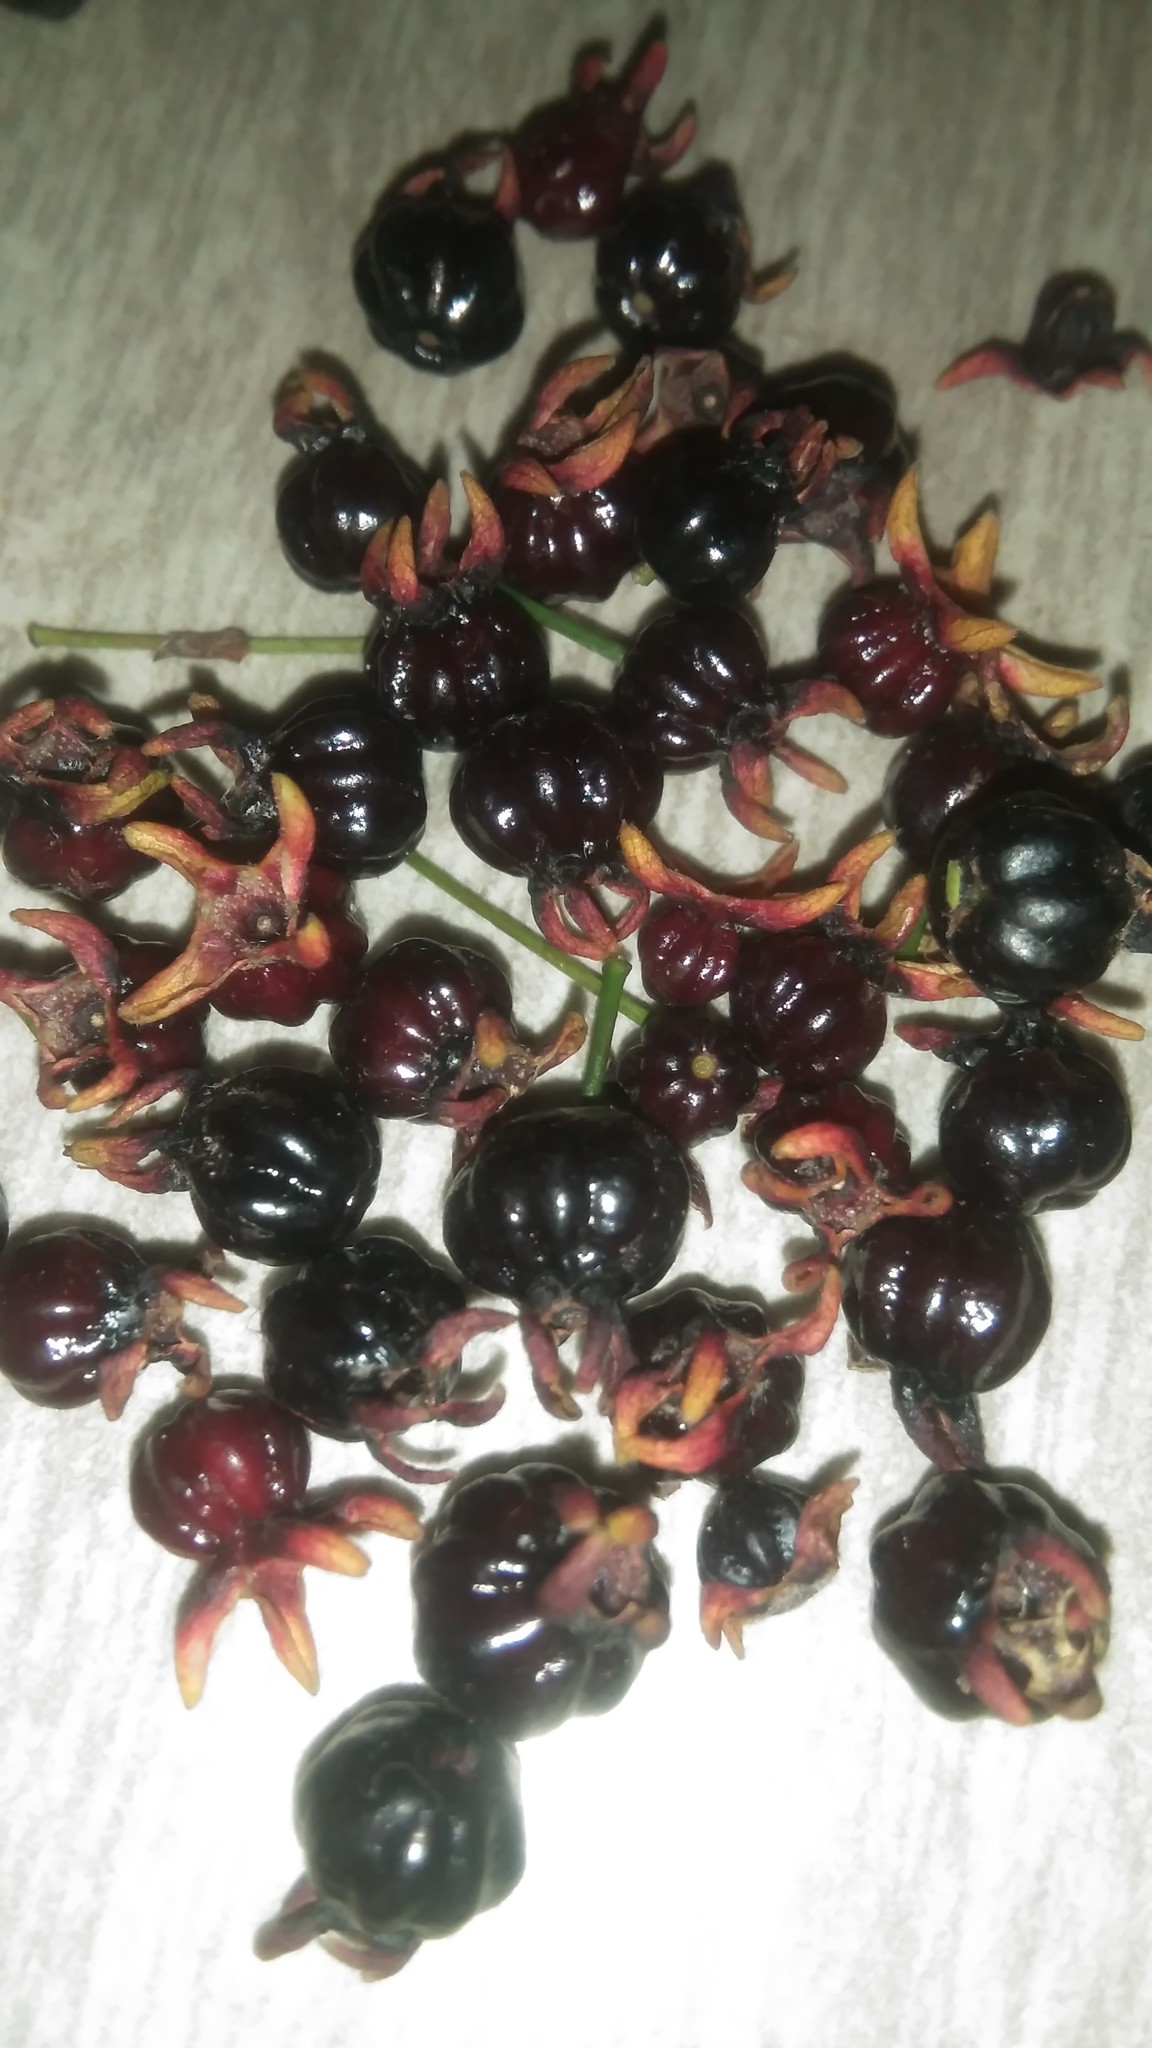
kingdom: Plantae
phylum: Tracheophyta
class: Magnoliopsida
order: Myrtales
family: Myrtaceae
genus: Eugenia
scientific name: Eugenia uniflora
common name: Surinam cherry
